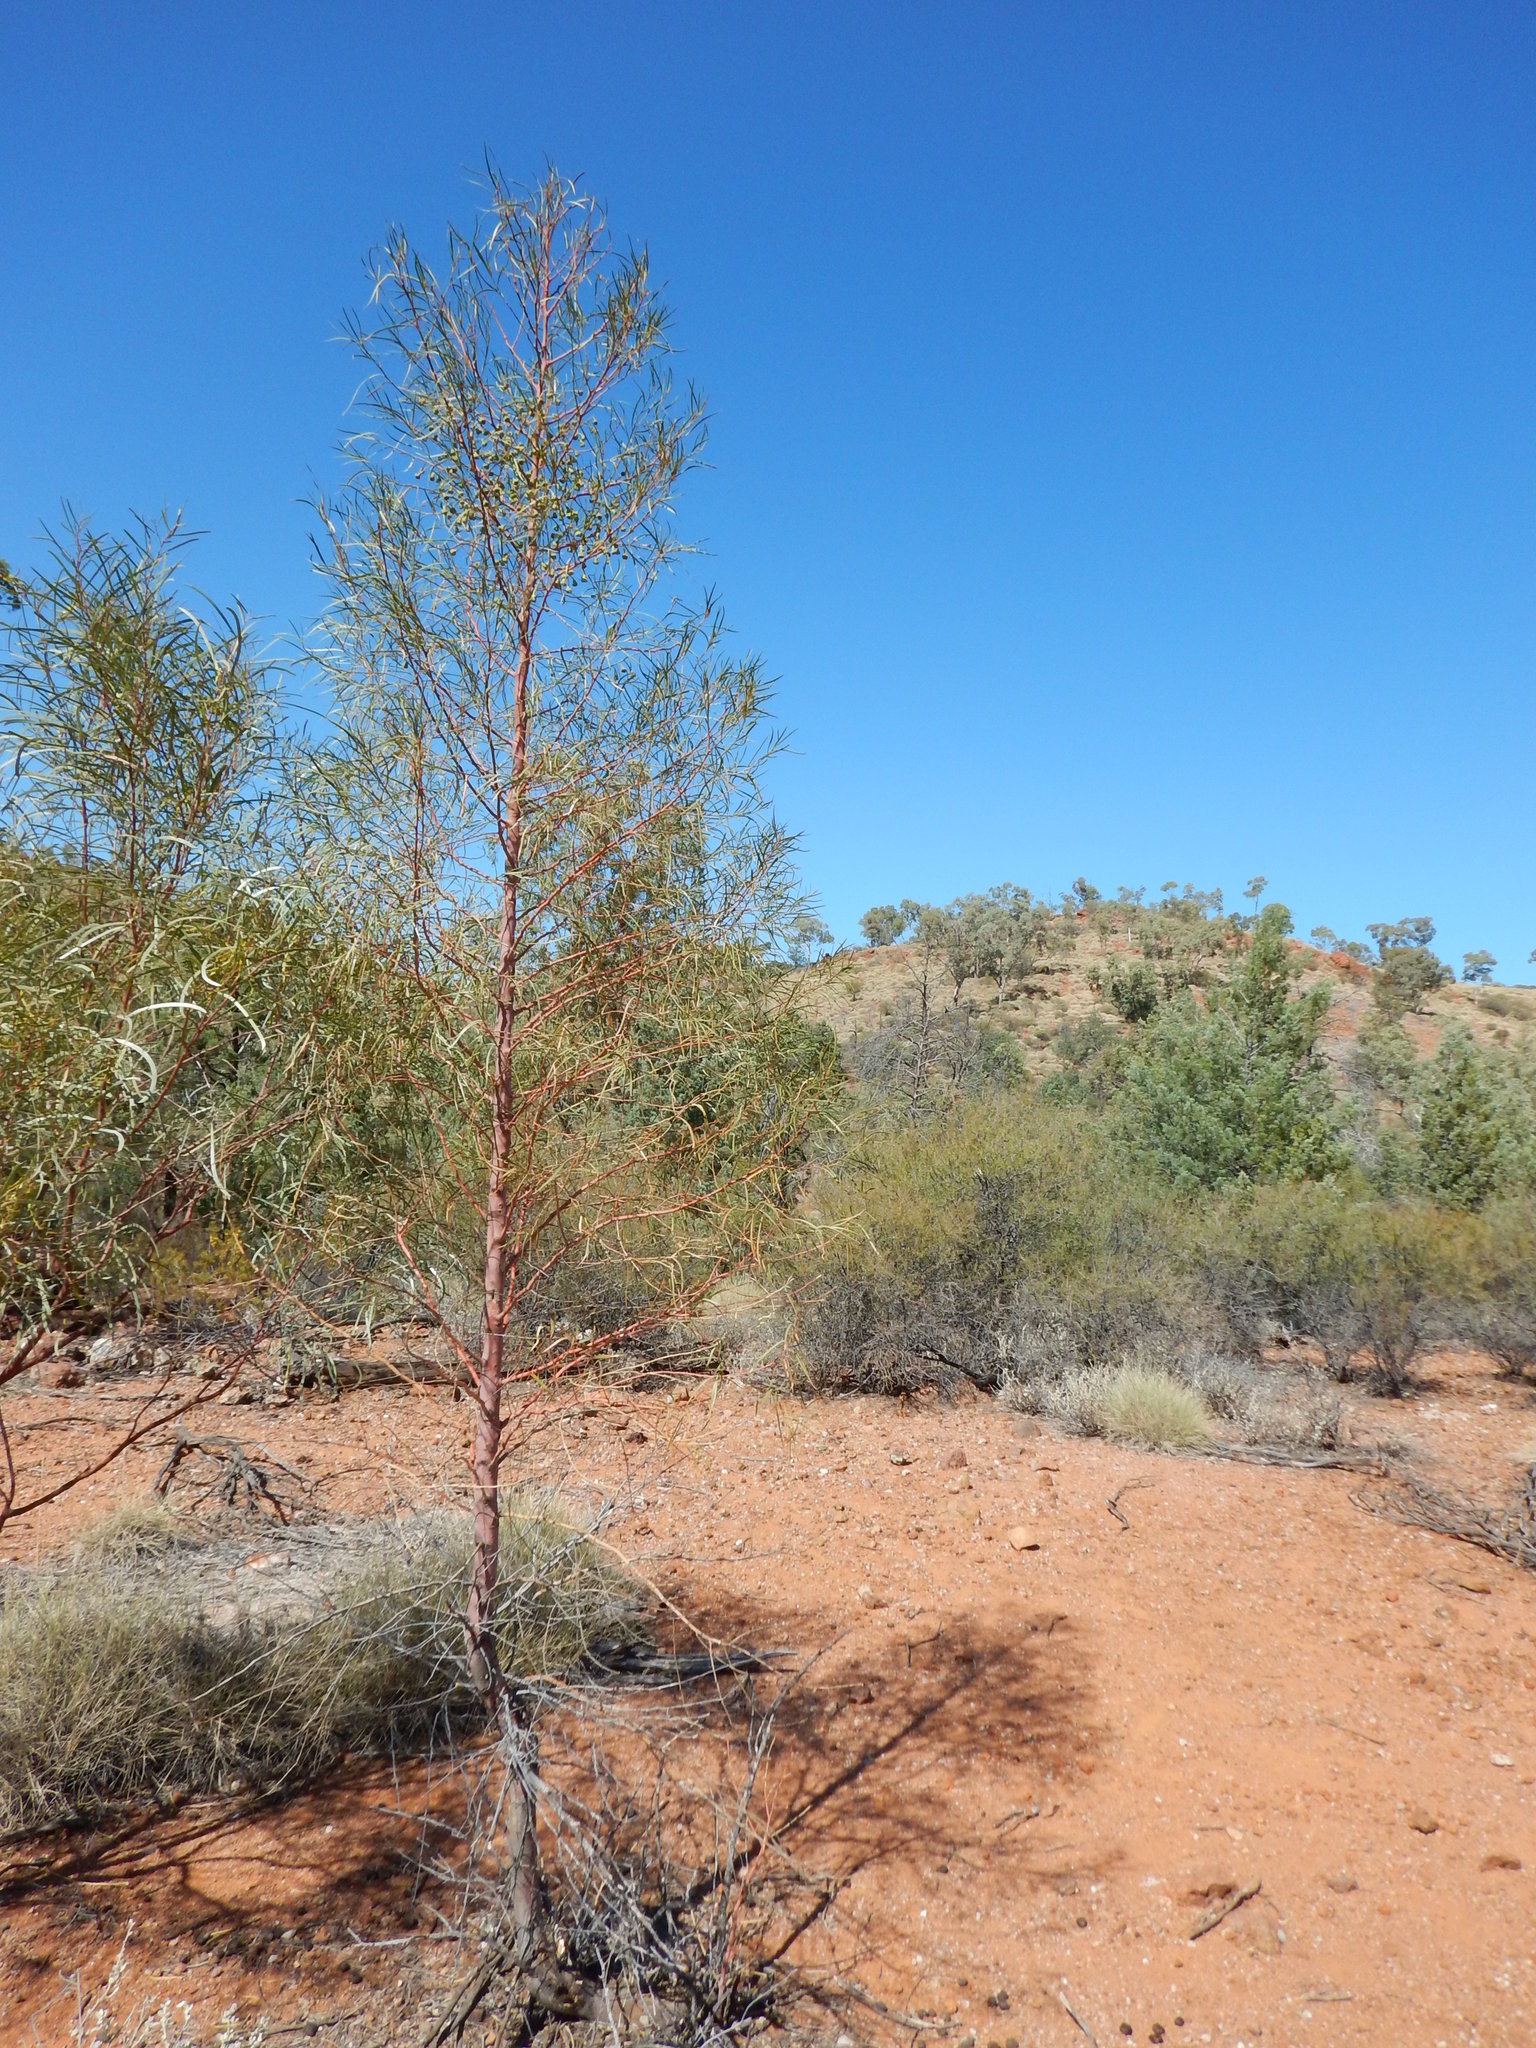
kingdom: Plantae
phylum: Tracheophyta
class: Magnoliopsida
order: Brassicales
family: Gyrostemonaceae
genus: Codonocarpus
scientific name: Codonocarpus pyramidalis
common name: Camel poison
